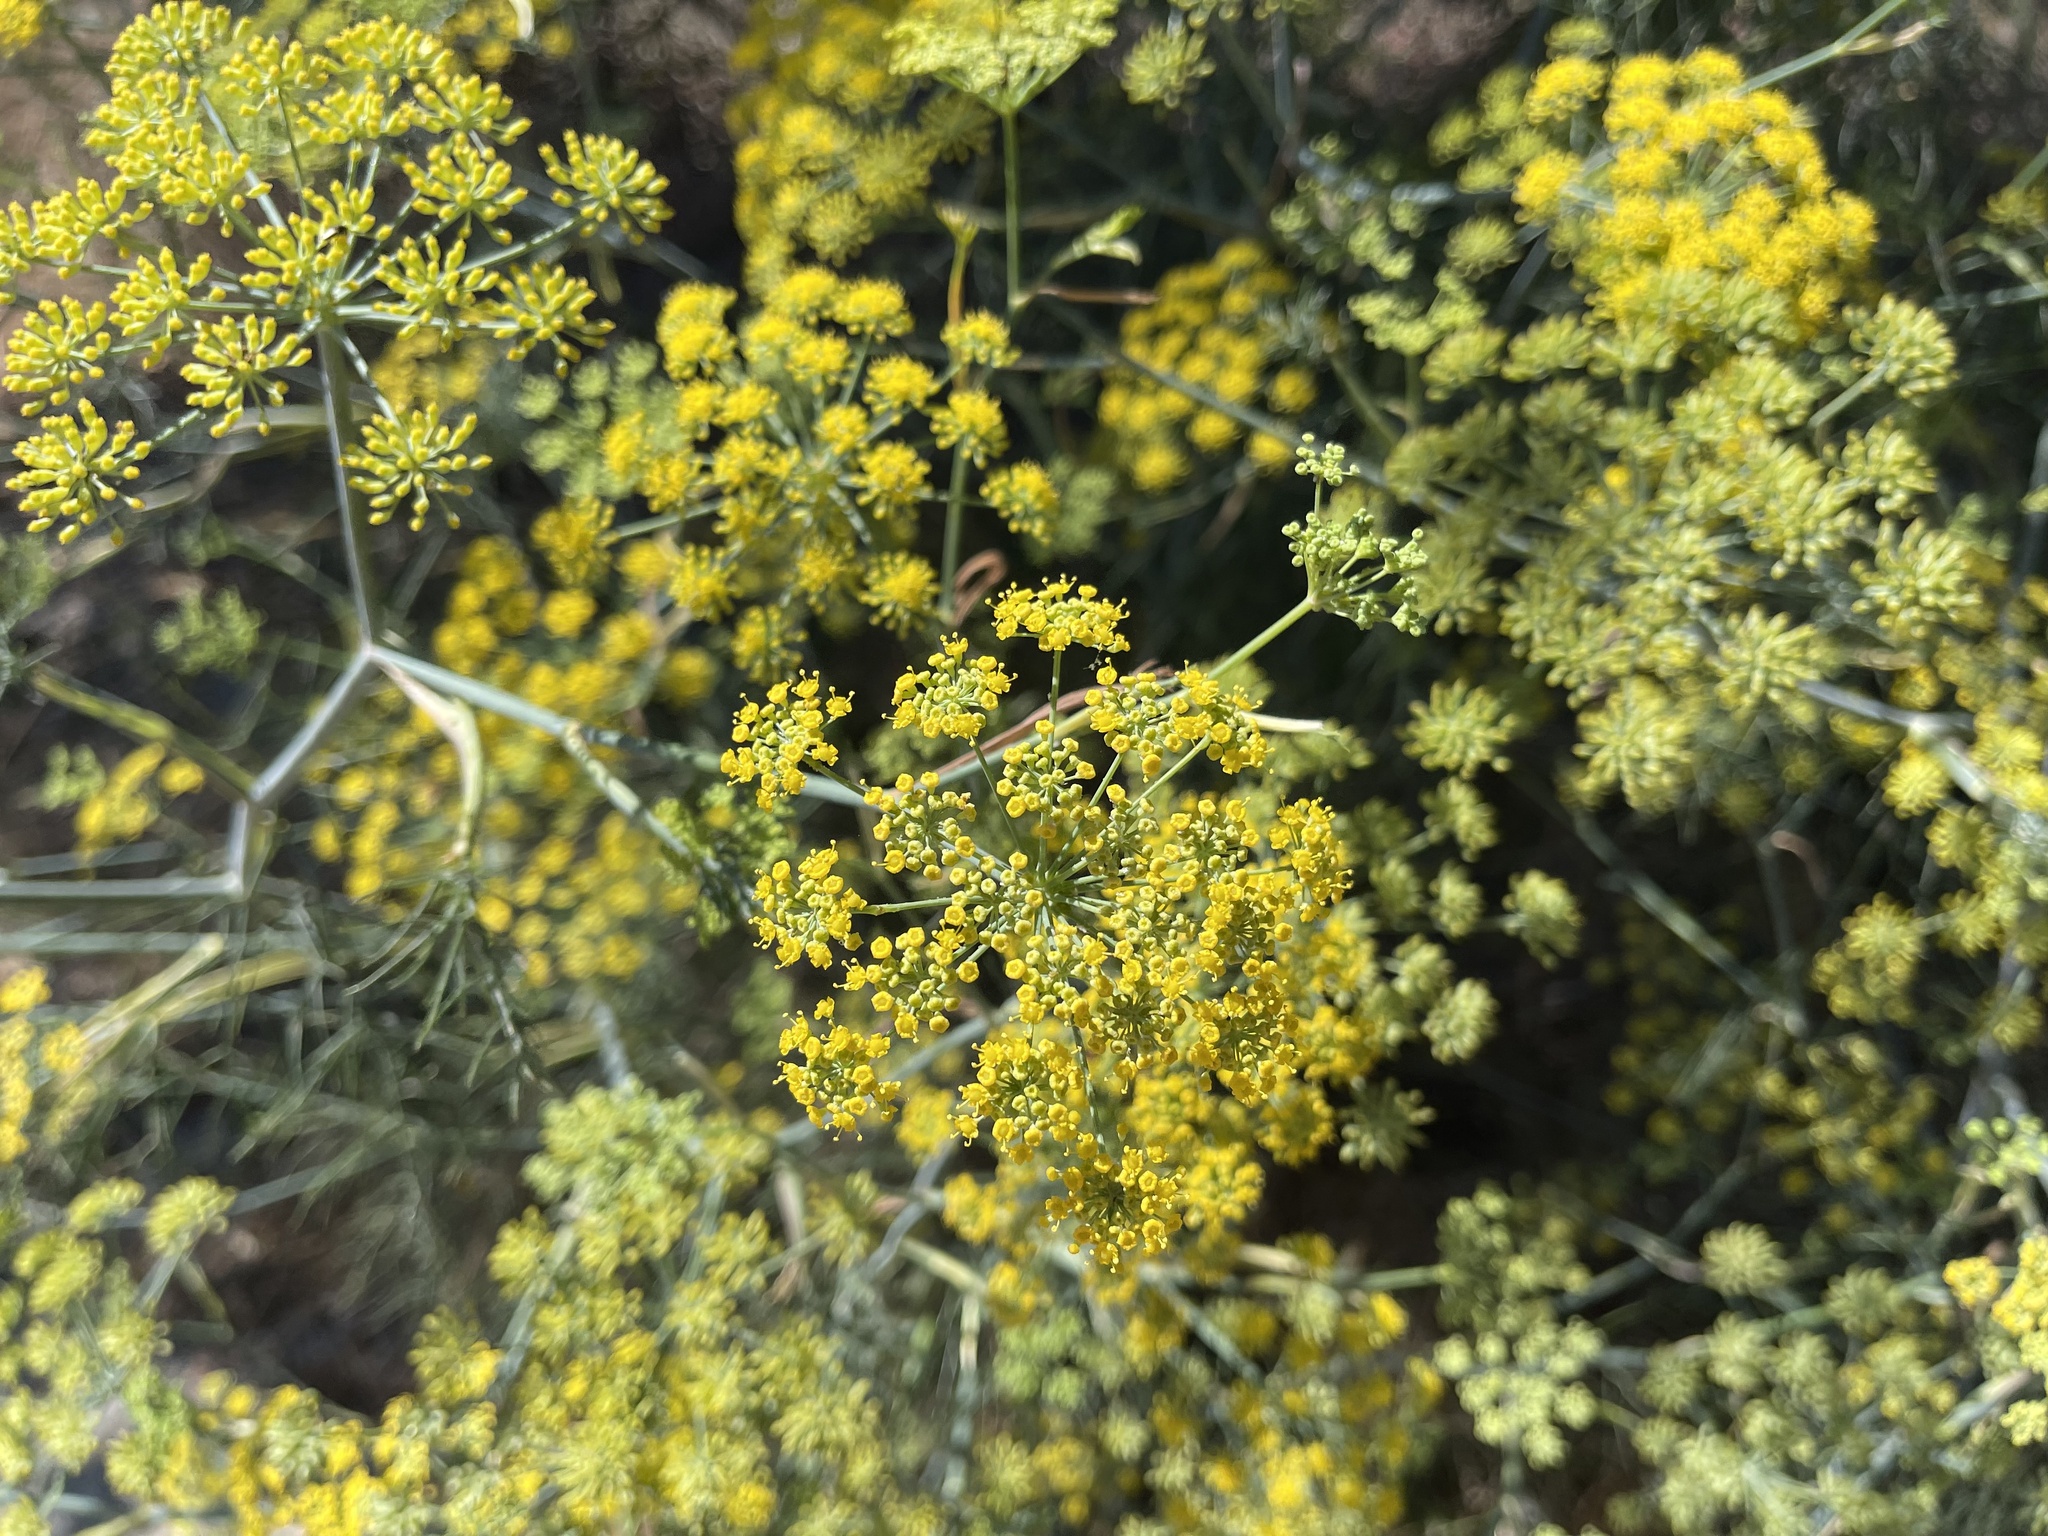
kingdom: Plantae
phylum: Tracheophyta
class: Magnoliopsida
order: Apiales
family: Apiaceae
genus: Foeniculum
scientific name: Foeniculum vulgare
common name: Fennel
